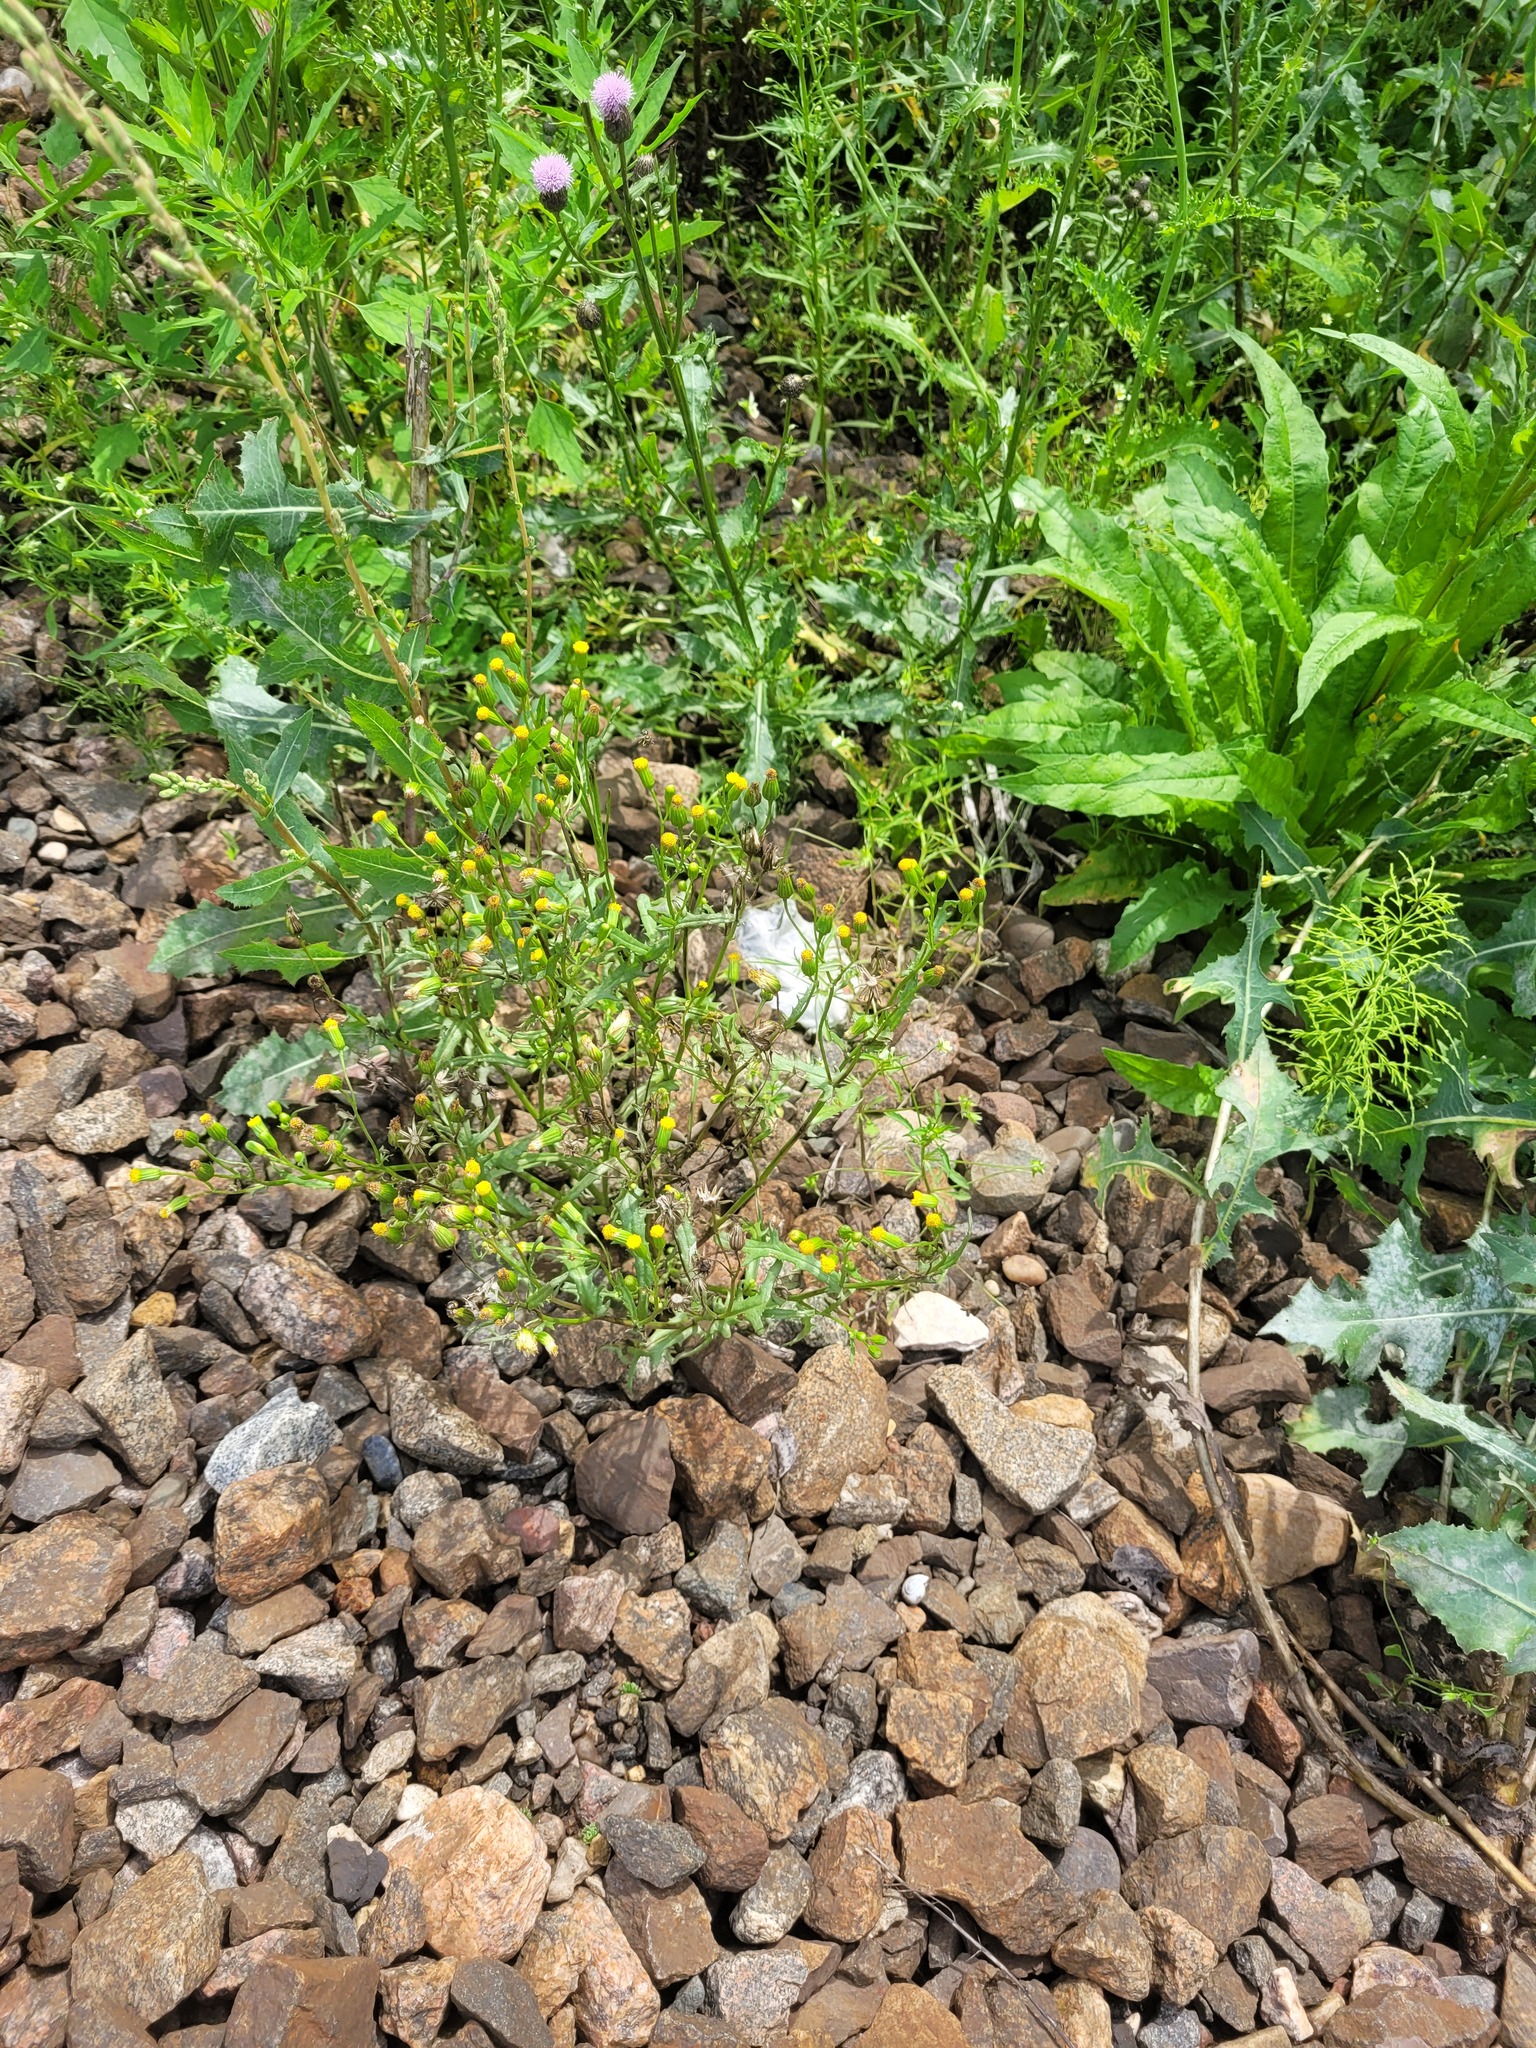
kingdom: Plantae
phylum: Tracheophyta
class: Magnoliopsida
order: Asterales
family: Asteraceae
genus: Senecio
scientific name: Senecio dubitabilis
